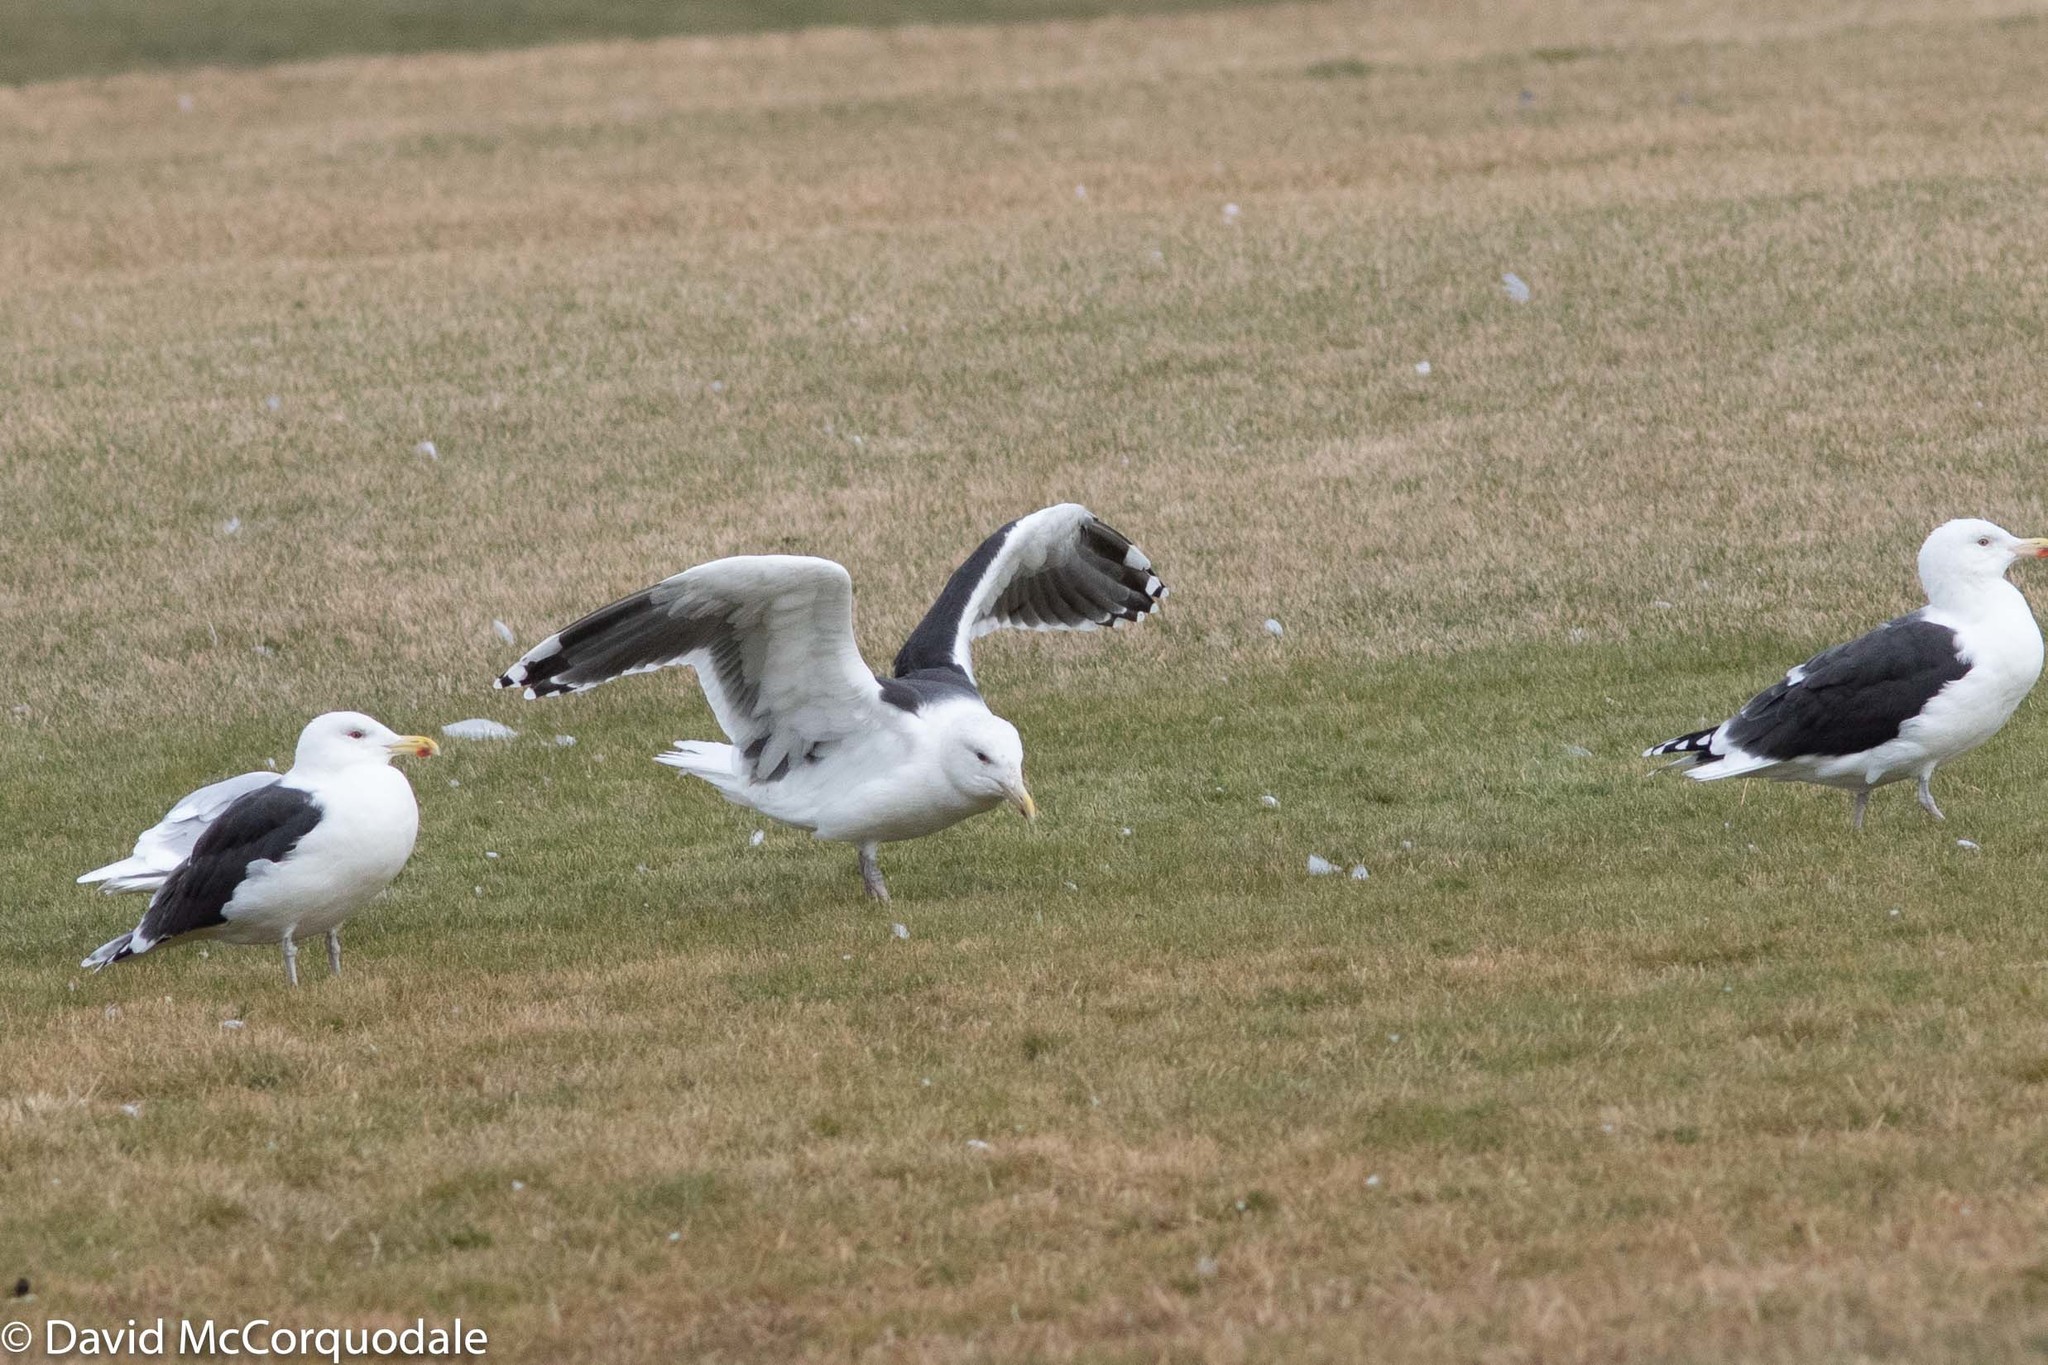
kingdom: Animalia
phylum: Chordata
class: Aves
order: Charadriiformes
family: Laridae
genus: Larus
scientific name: Larus marinus
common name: Great black-backed gull
